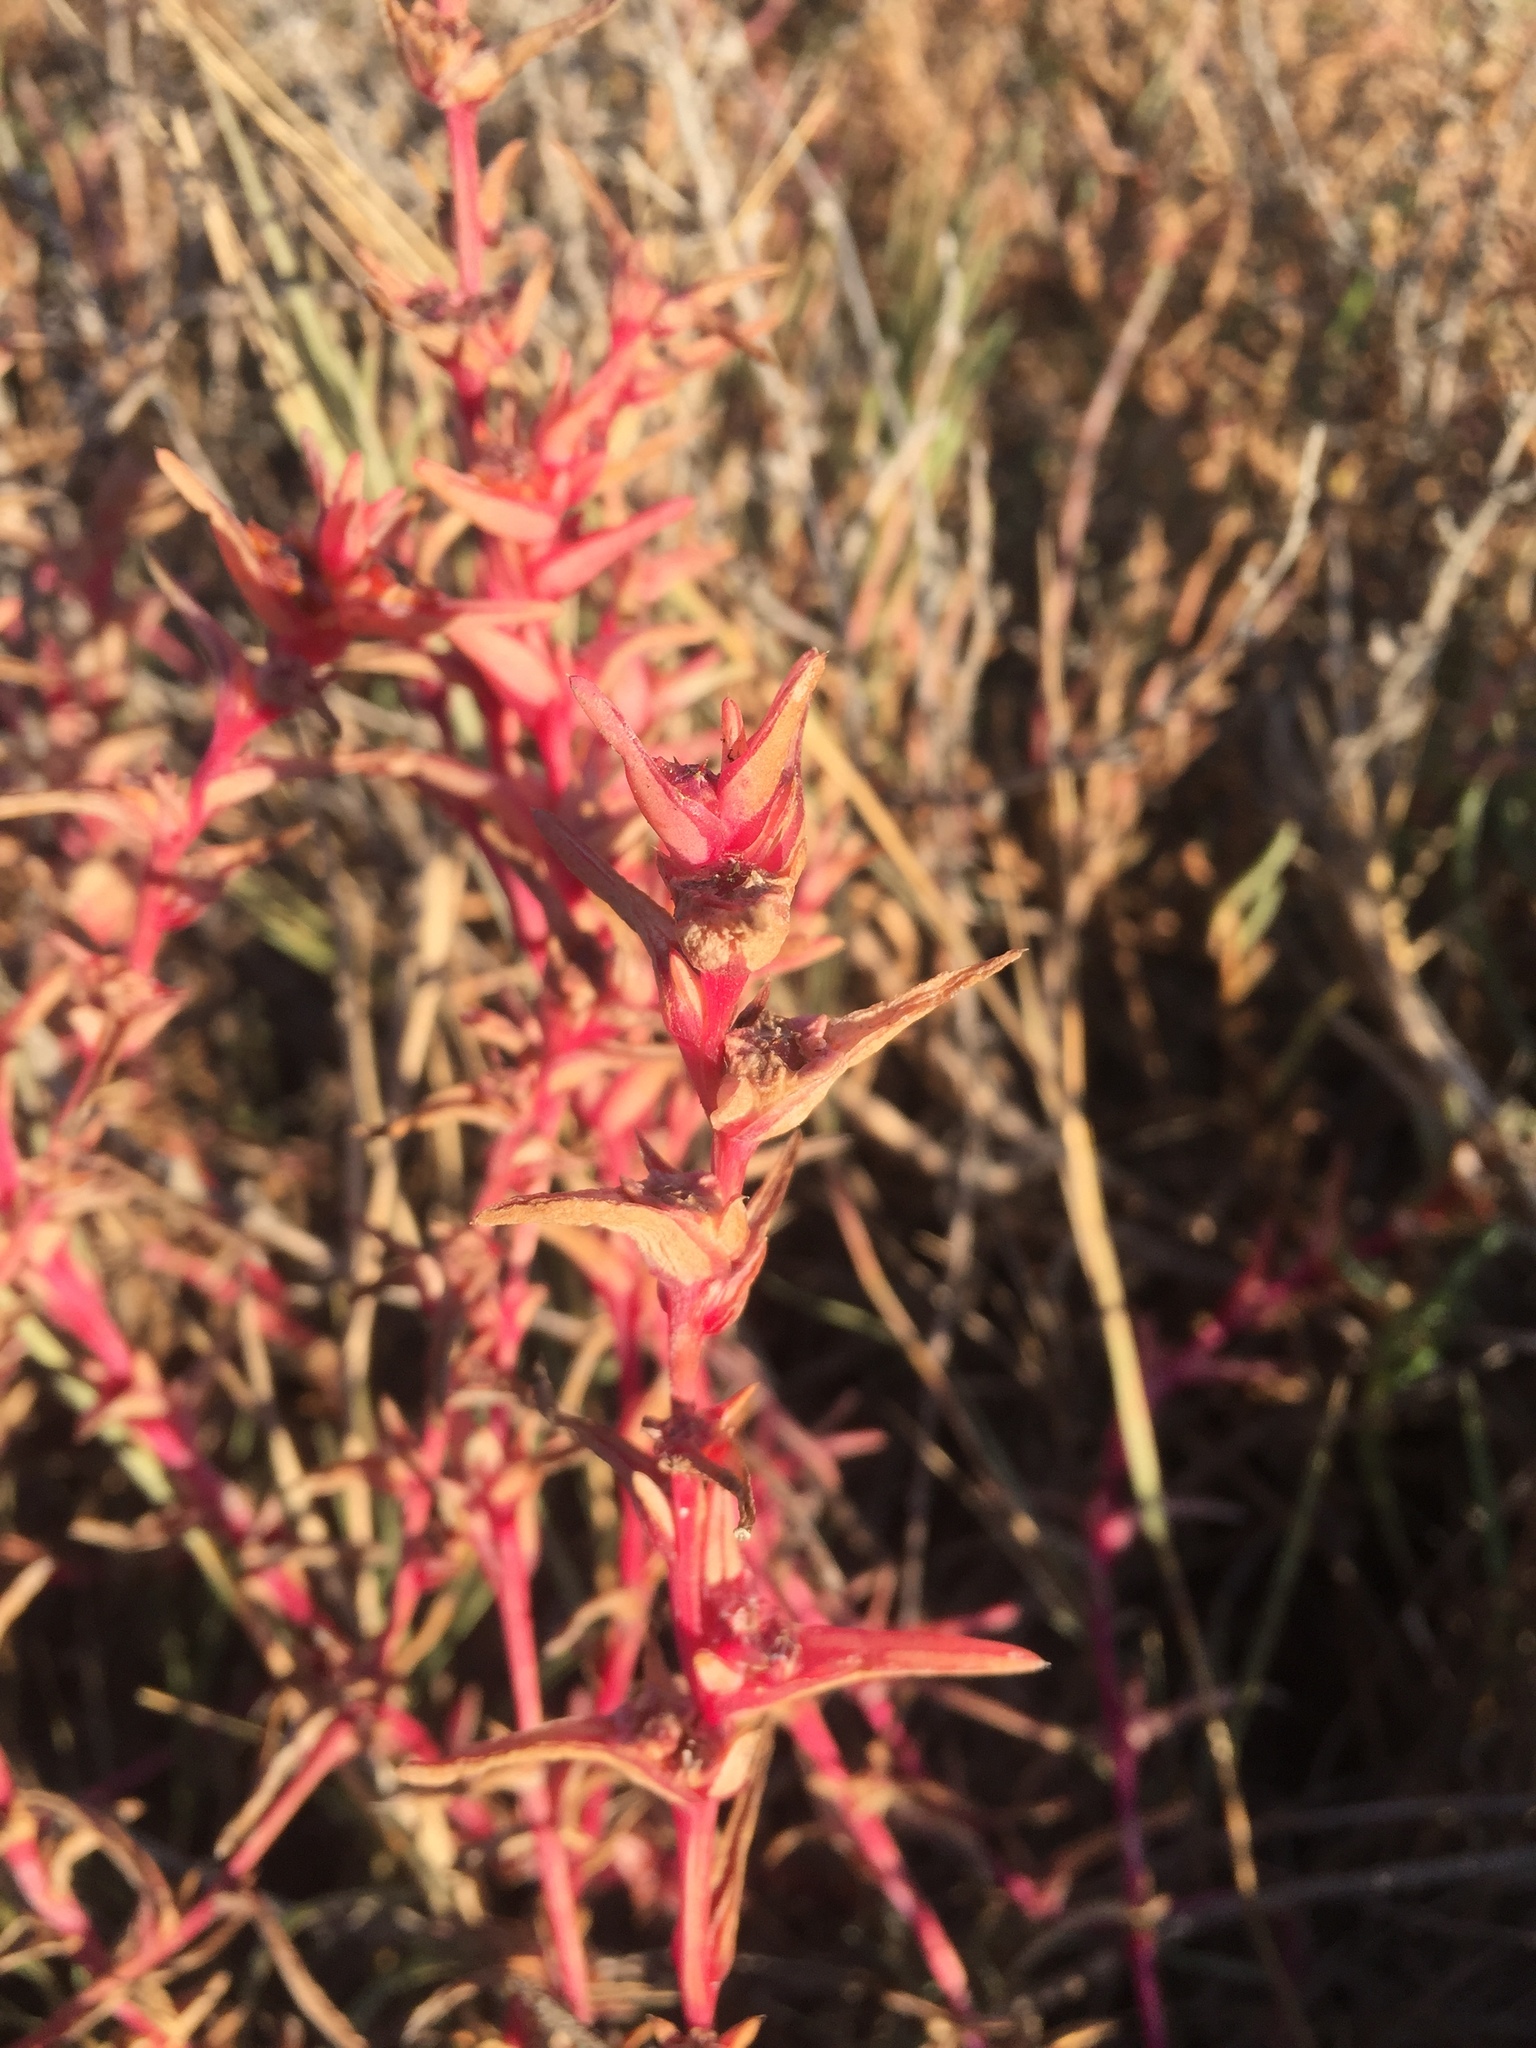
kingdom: Plantae
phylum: Tracheophyta
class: Magnoliopsida
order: Caryophyllales
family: Amaranthaceae
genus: Salsola
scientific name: Salsola soda
